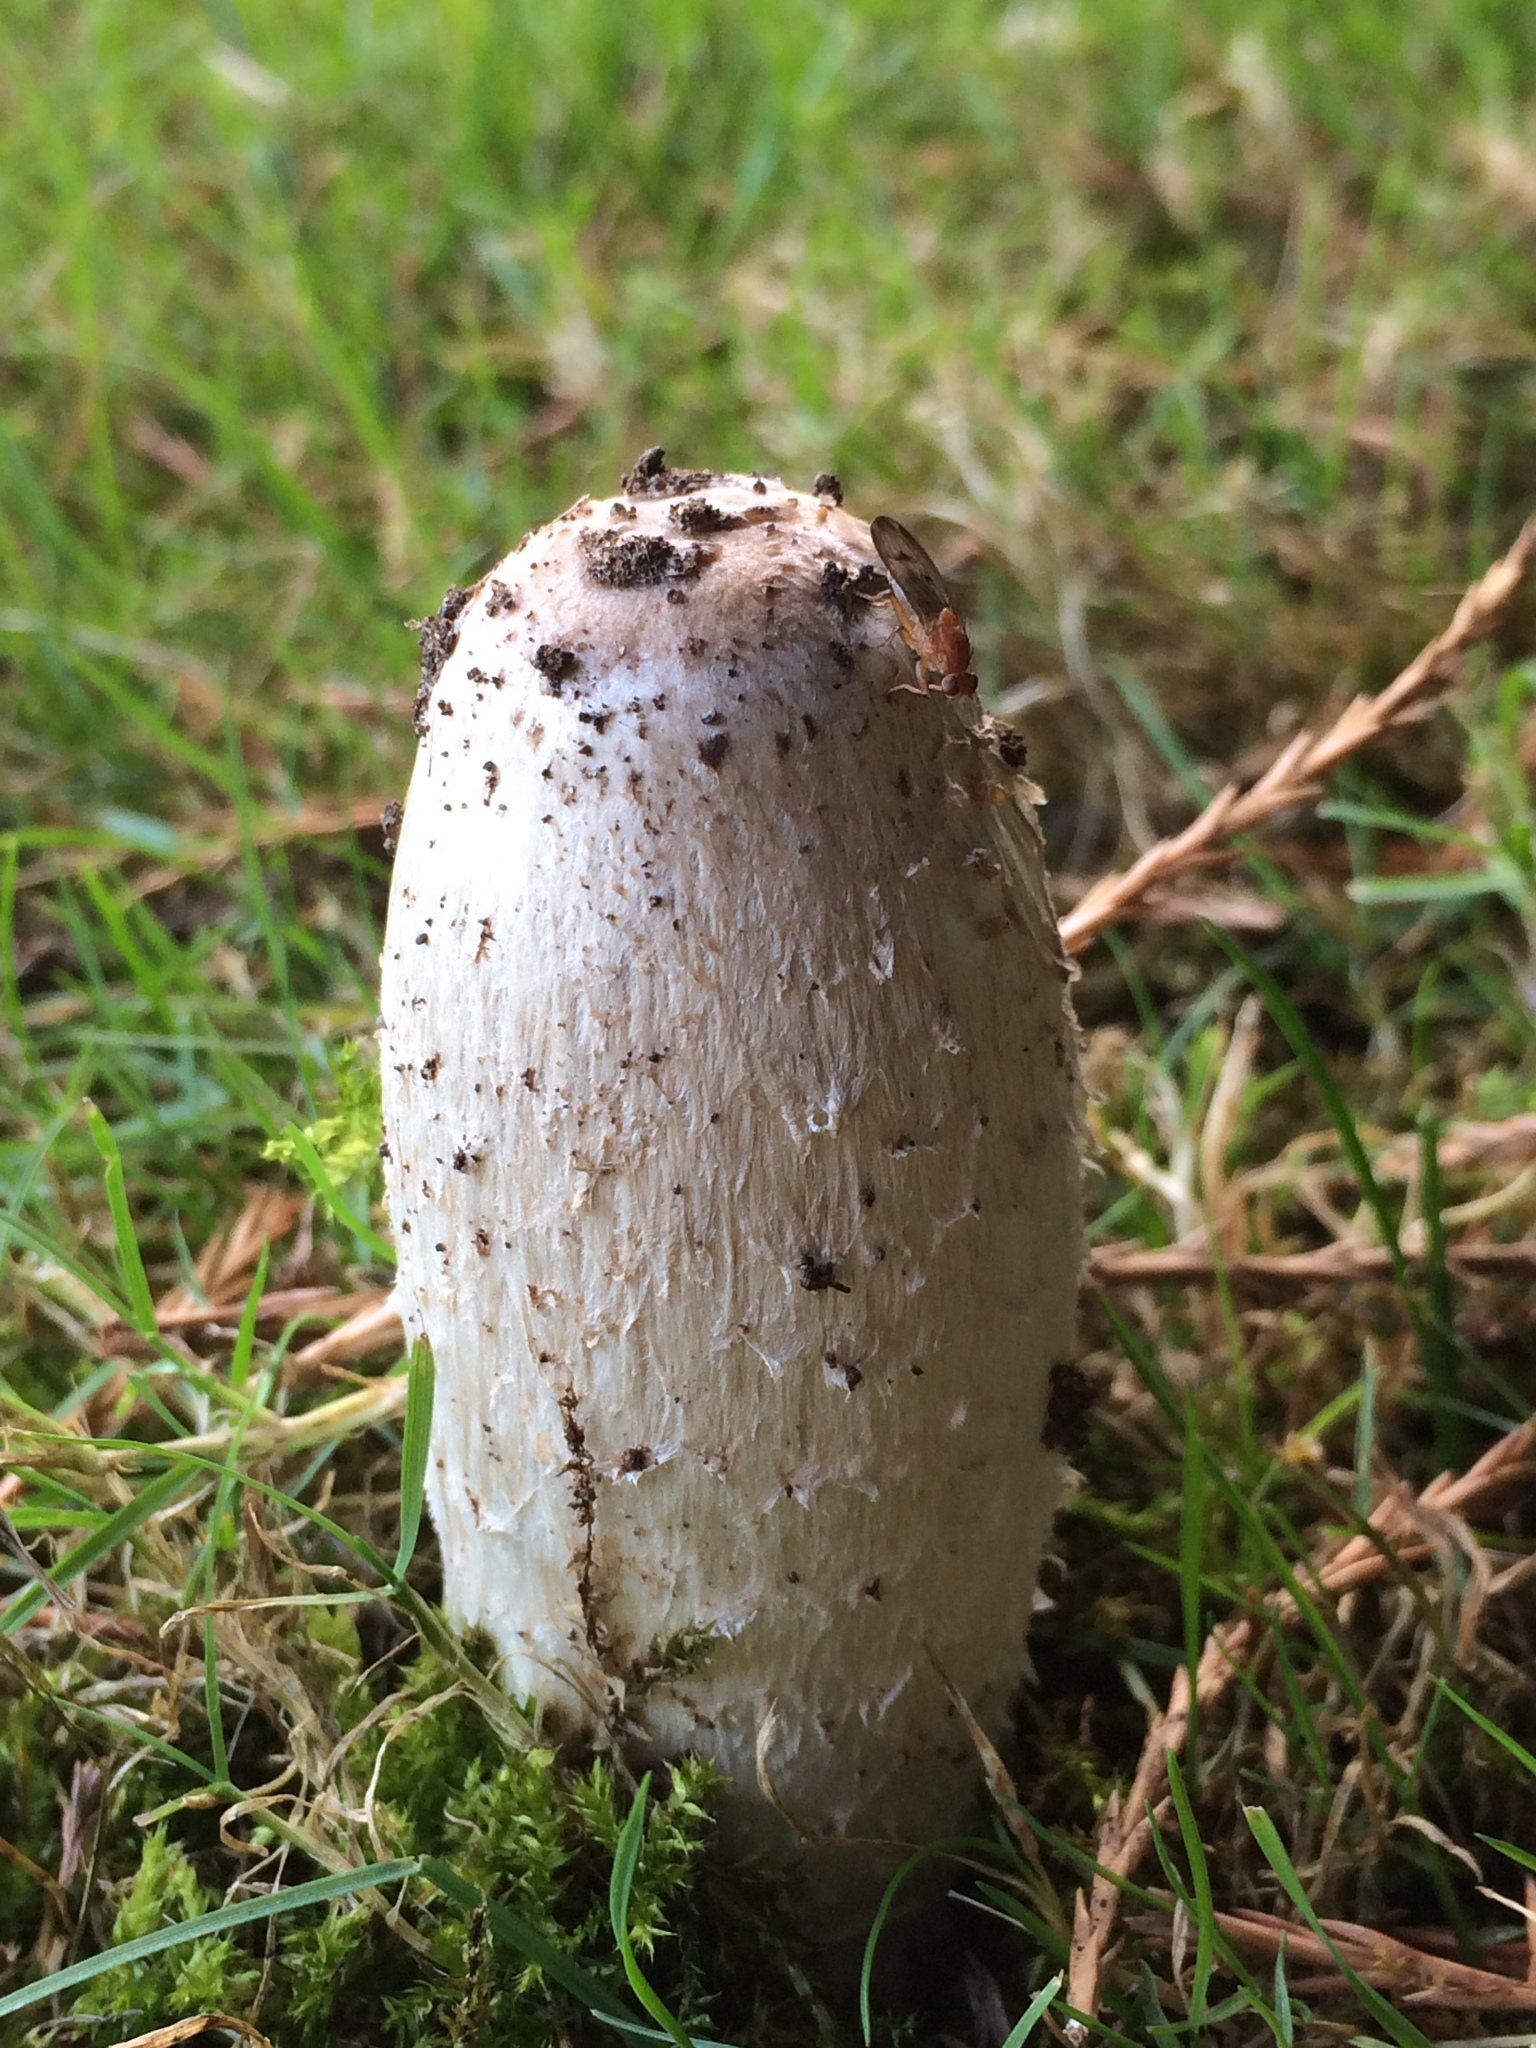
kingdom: Fungi
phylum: Basidiomycota
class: Agaricomycetes
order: Agaricales
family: Agaricaceae
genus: Coprinus
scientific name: Coprinus comatus
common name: Lawyer's wig
